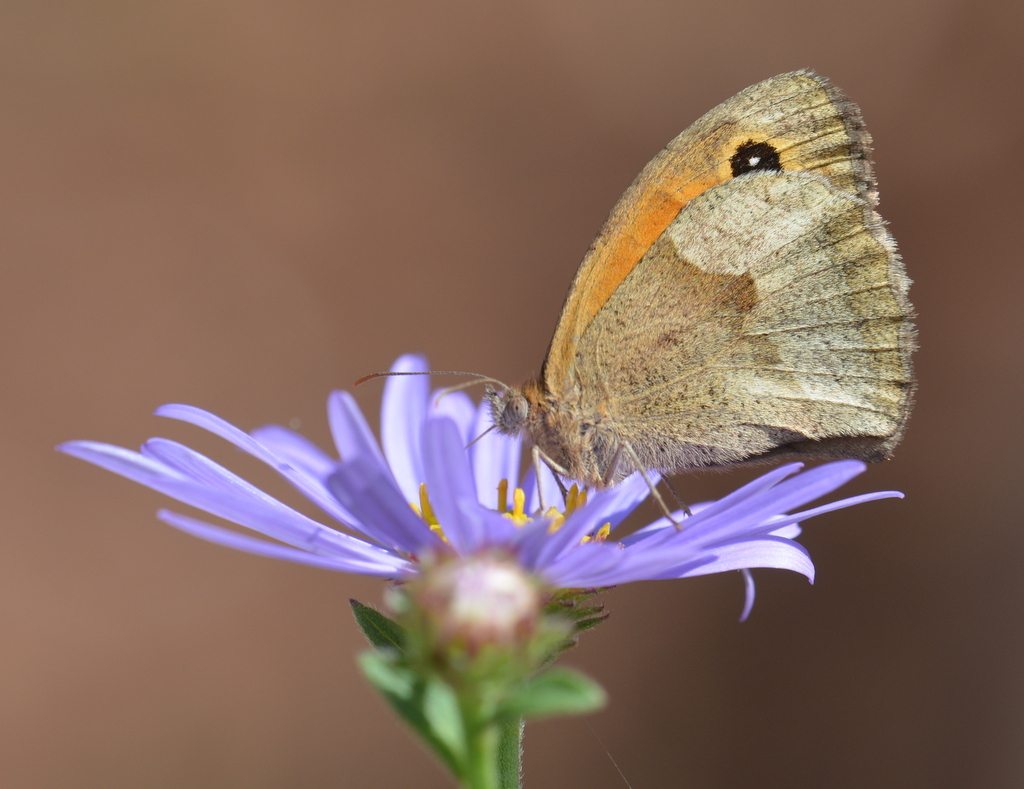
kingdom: Animalia
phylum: Arthropoda
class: Insecta
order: Lepidoptera
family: Nymphalidae
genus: Maniola
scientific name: Maniola jurtina
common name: Meadow brown
